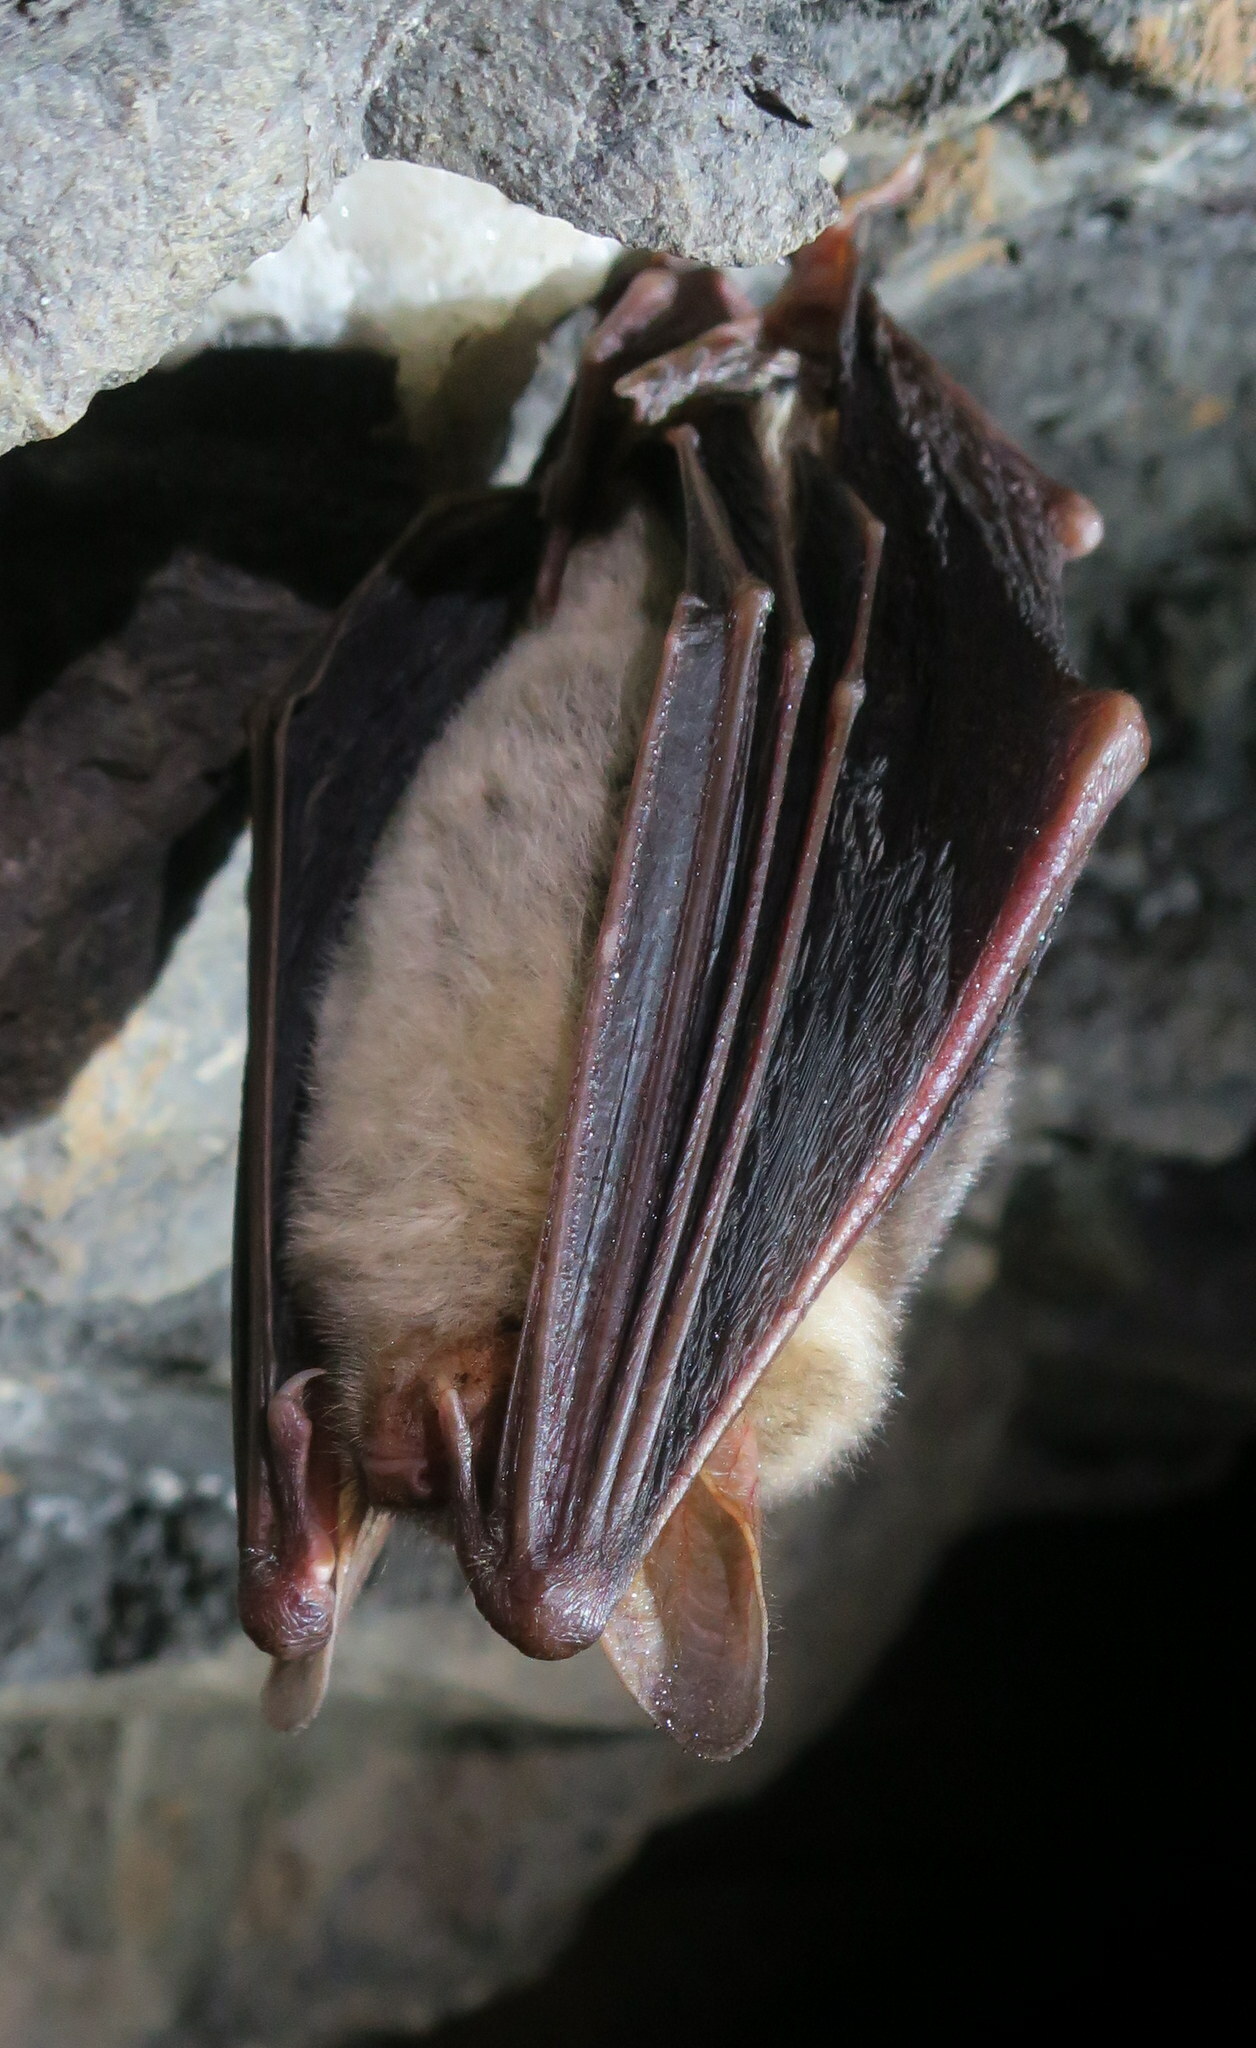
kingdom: Animalia
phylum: Chordata
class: Mammalia
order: Chiroptera
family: Vespertilionidae
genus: Myotis
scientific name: Myotis myotis
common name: Greater mouse-eared bat
